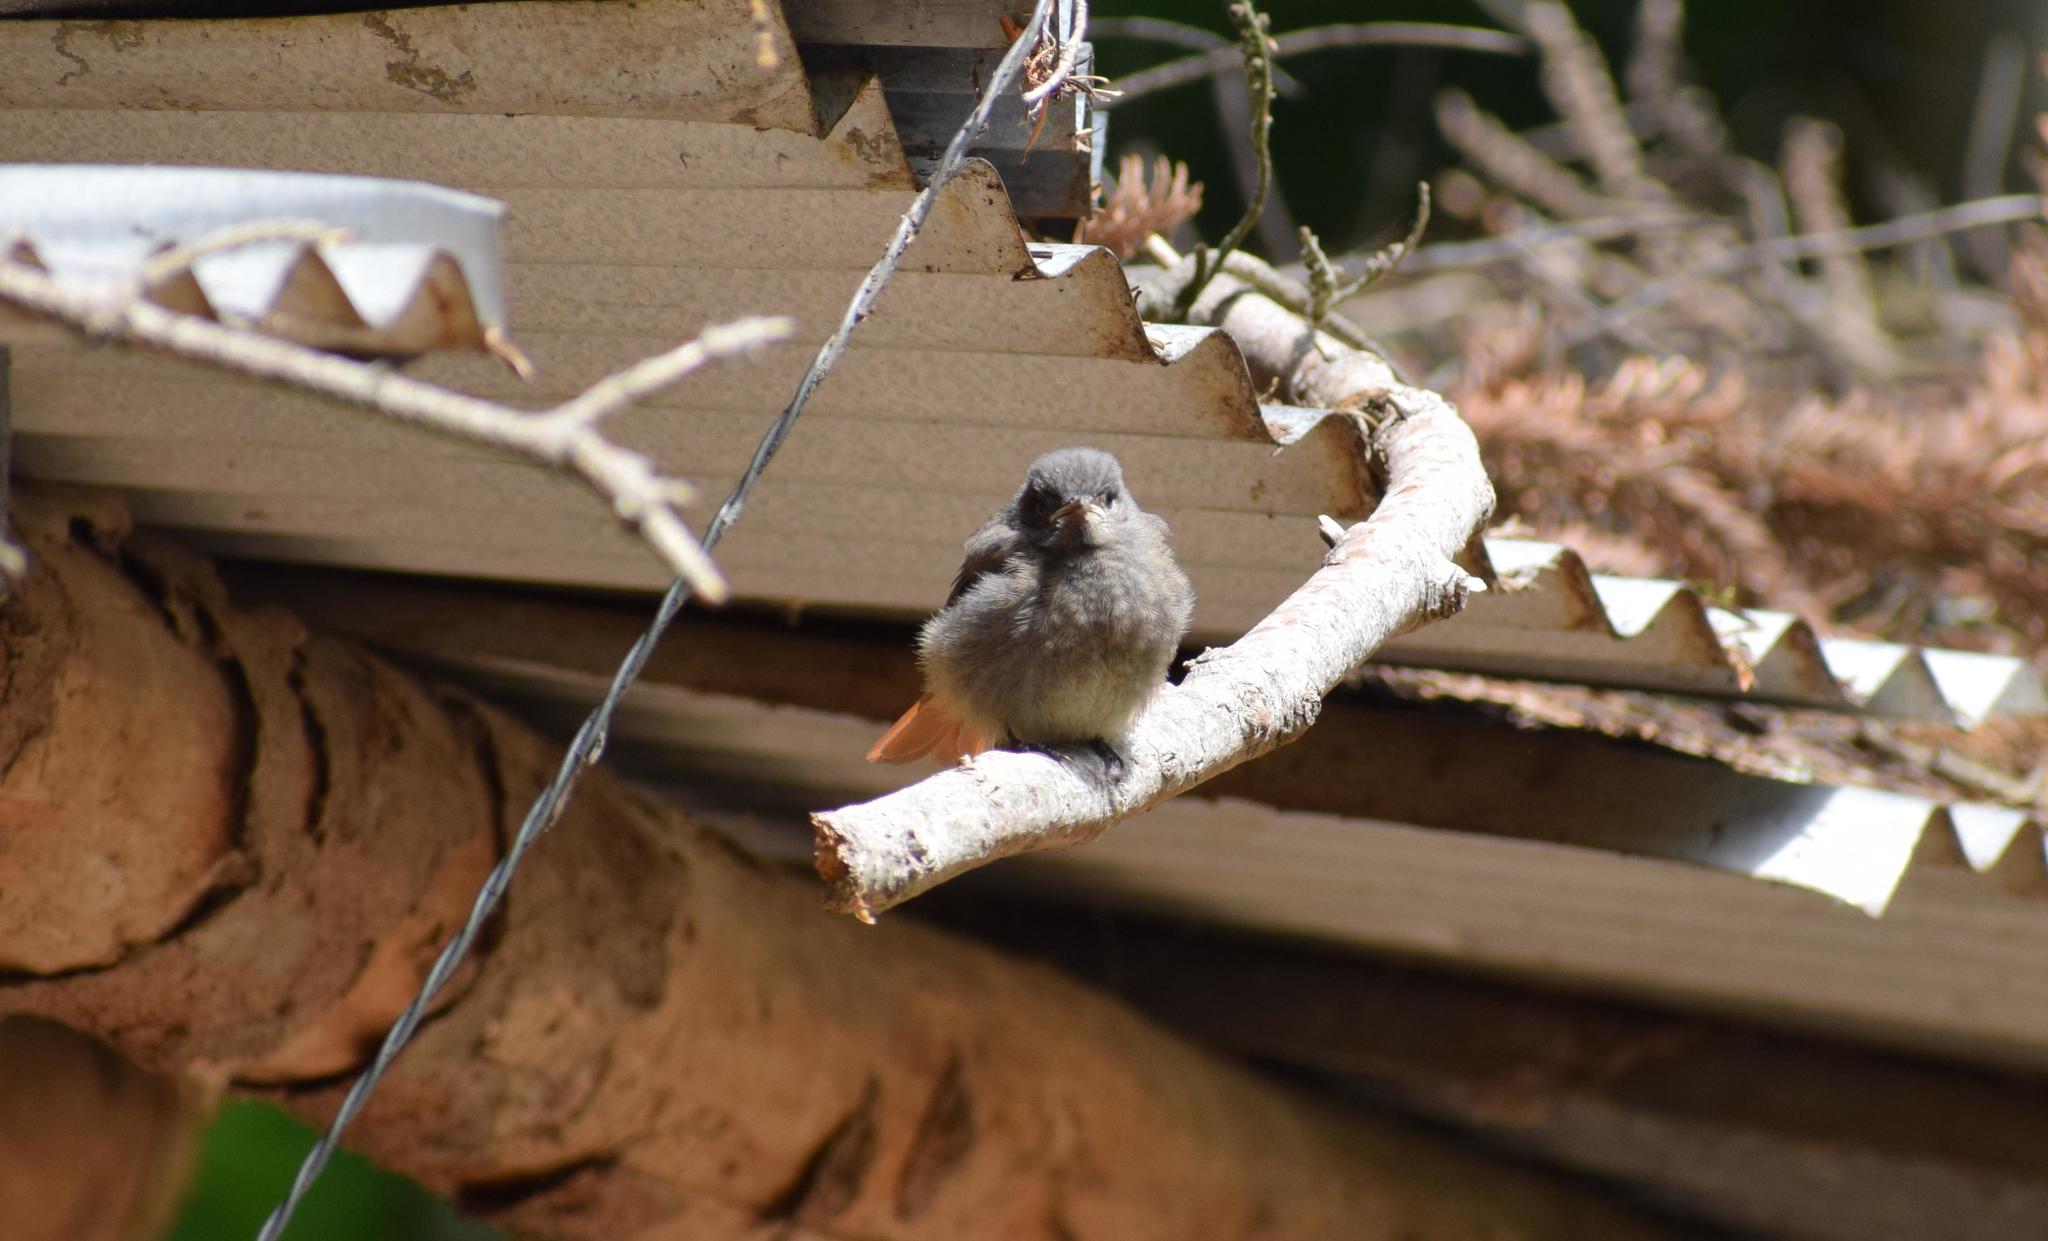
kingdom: Animalia
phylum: Chordata
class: Aves
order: Passeriformes
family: Muscicapidae
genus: Phoenicurus
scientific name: Phoenicurus ochruros
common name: Black redstart
